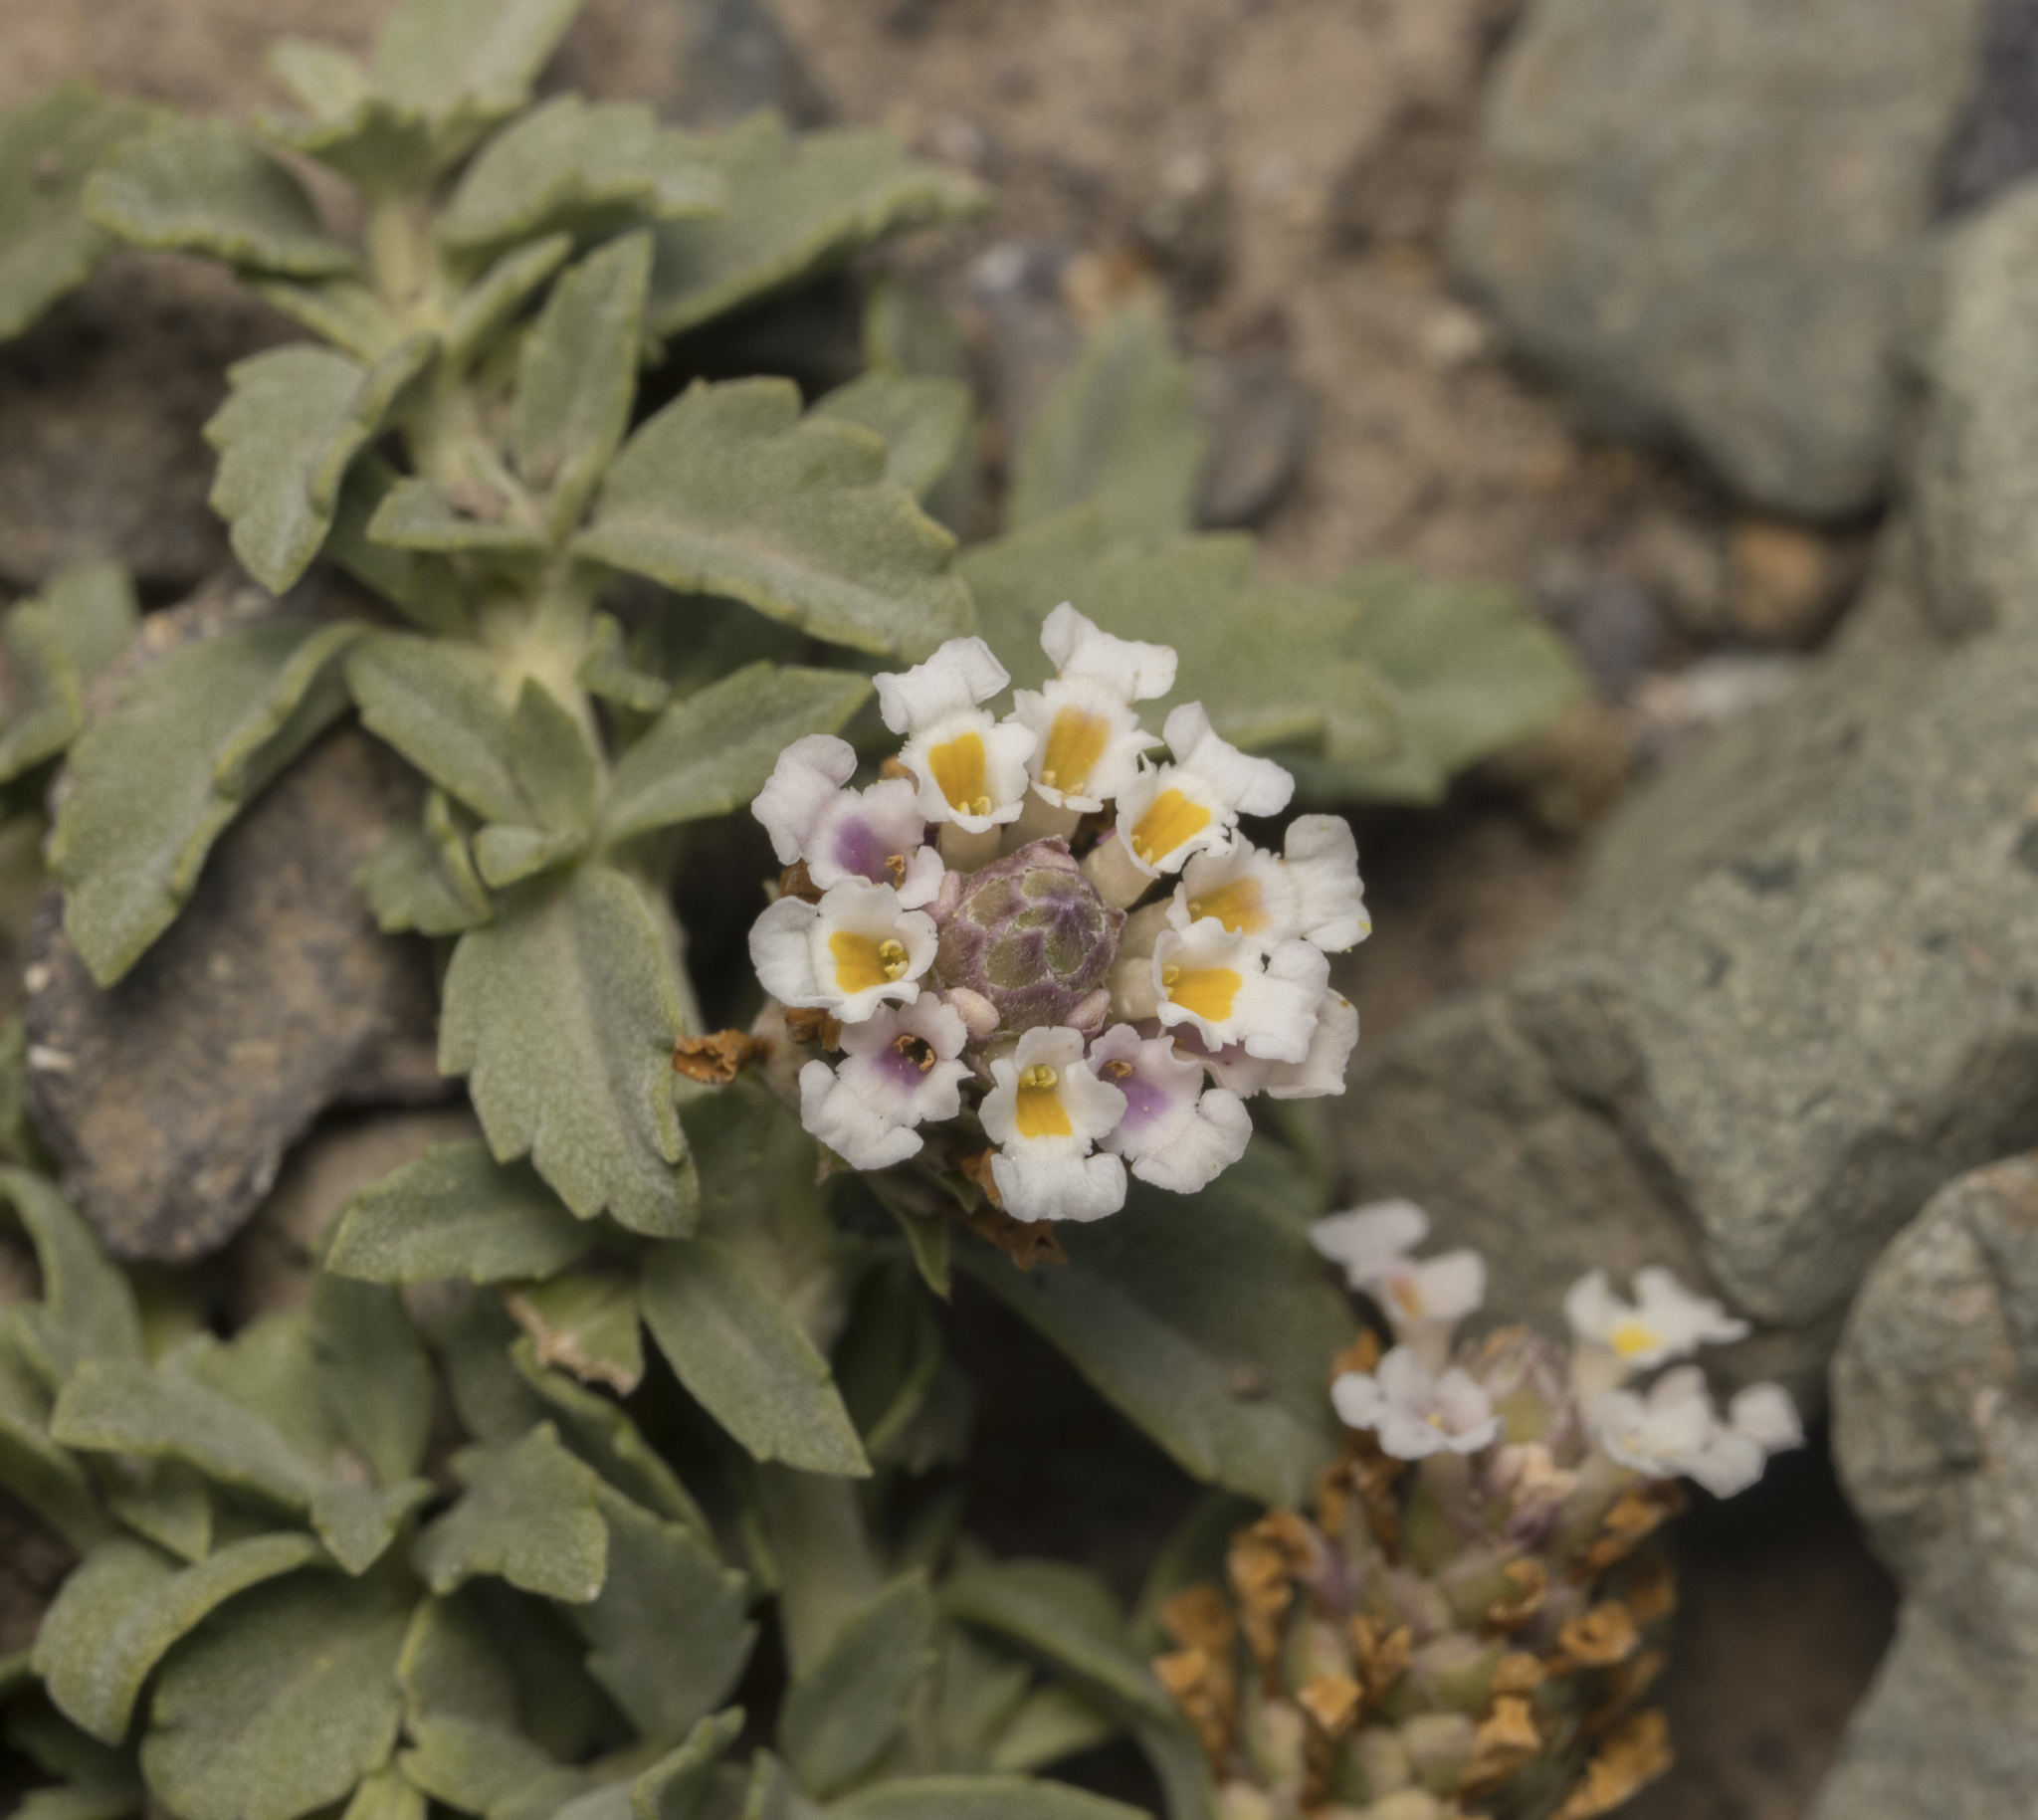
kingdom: Plantae
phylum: Tracheophyta
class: Magnoliopsida
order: Lamiales
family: Verbenaceae
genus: Phyla
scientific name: Phyla nodiflora
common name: Frogfruit
